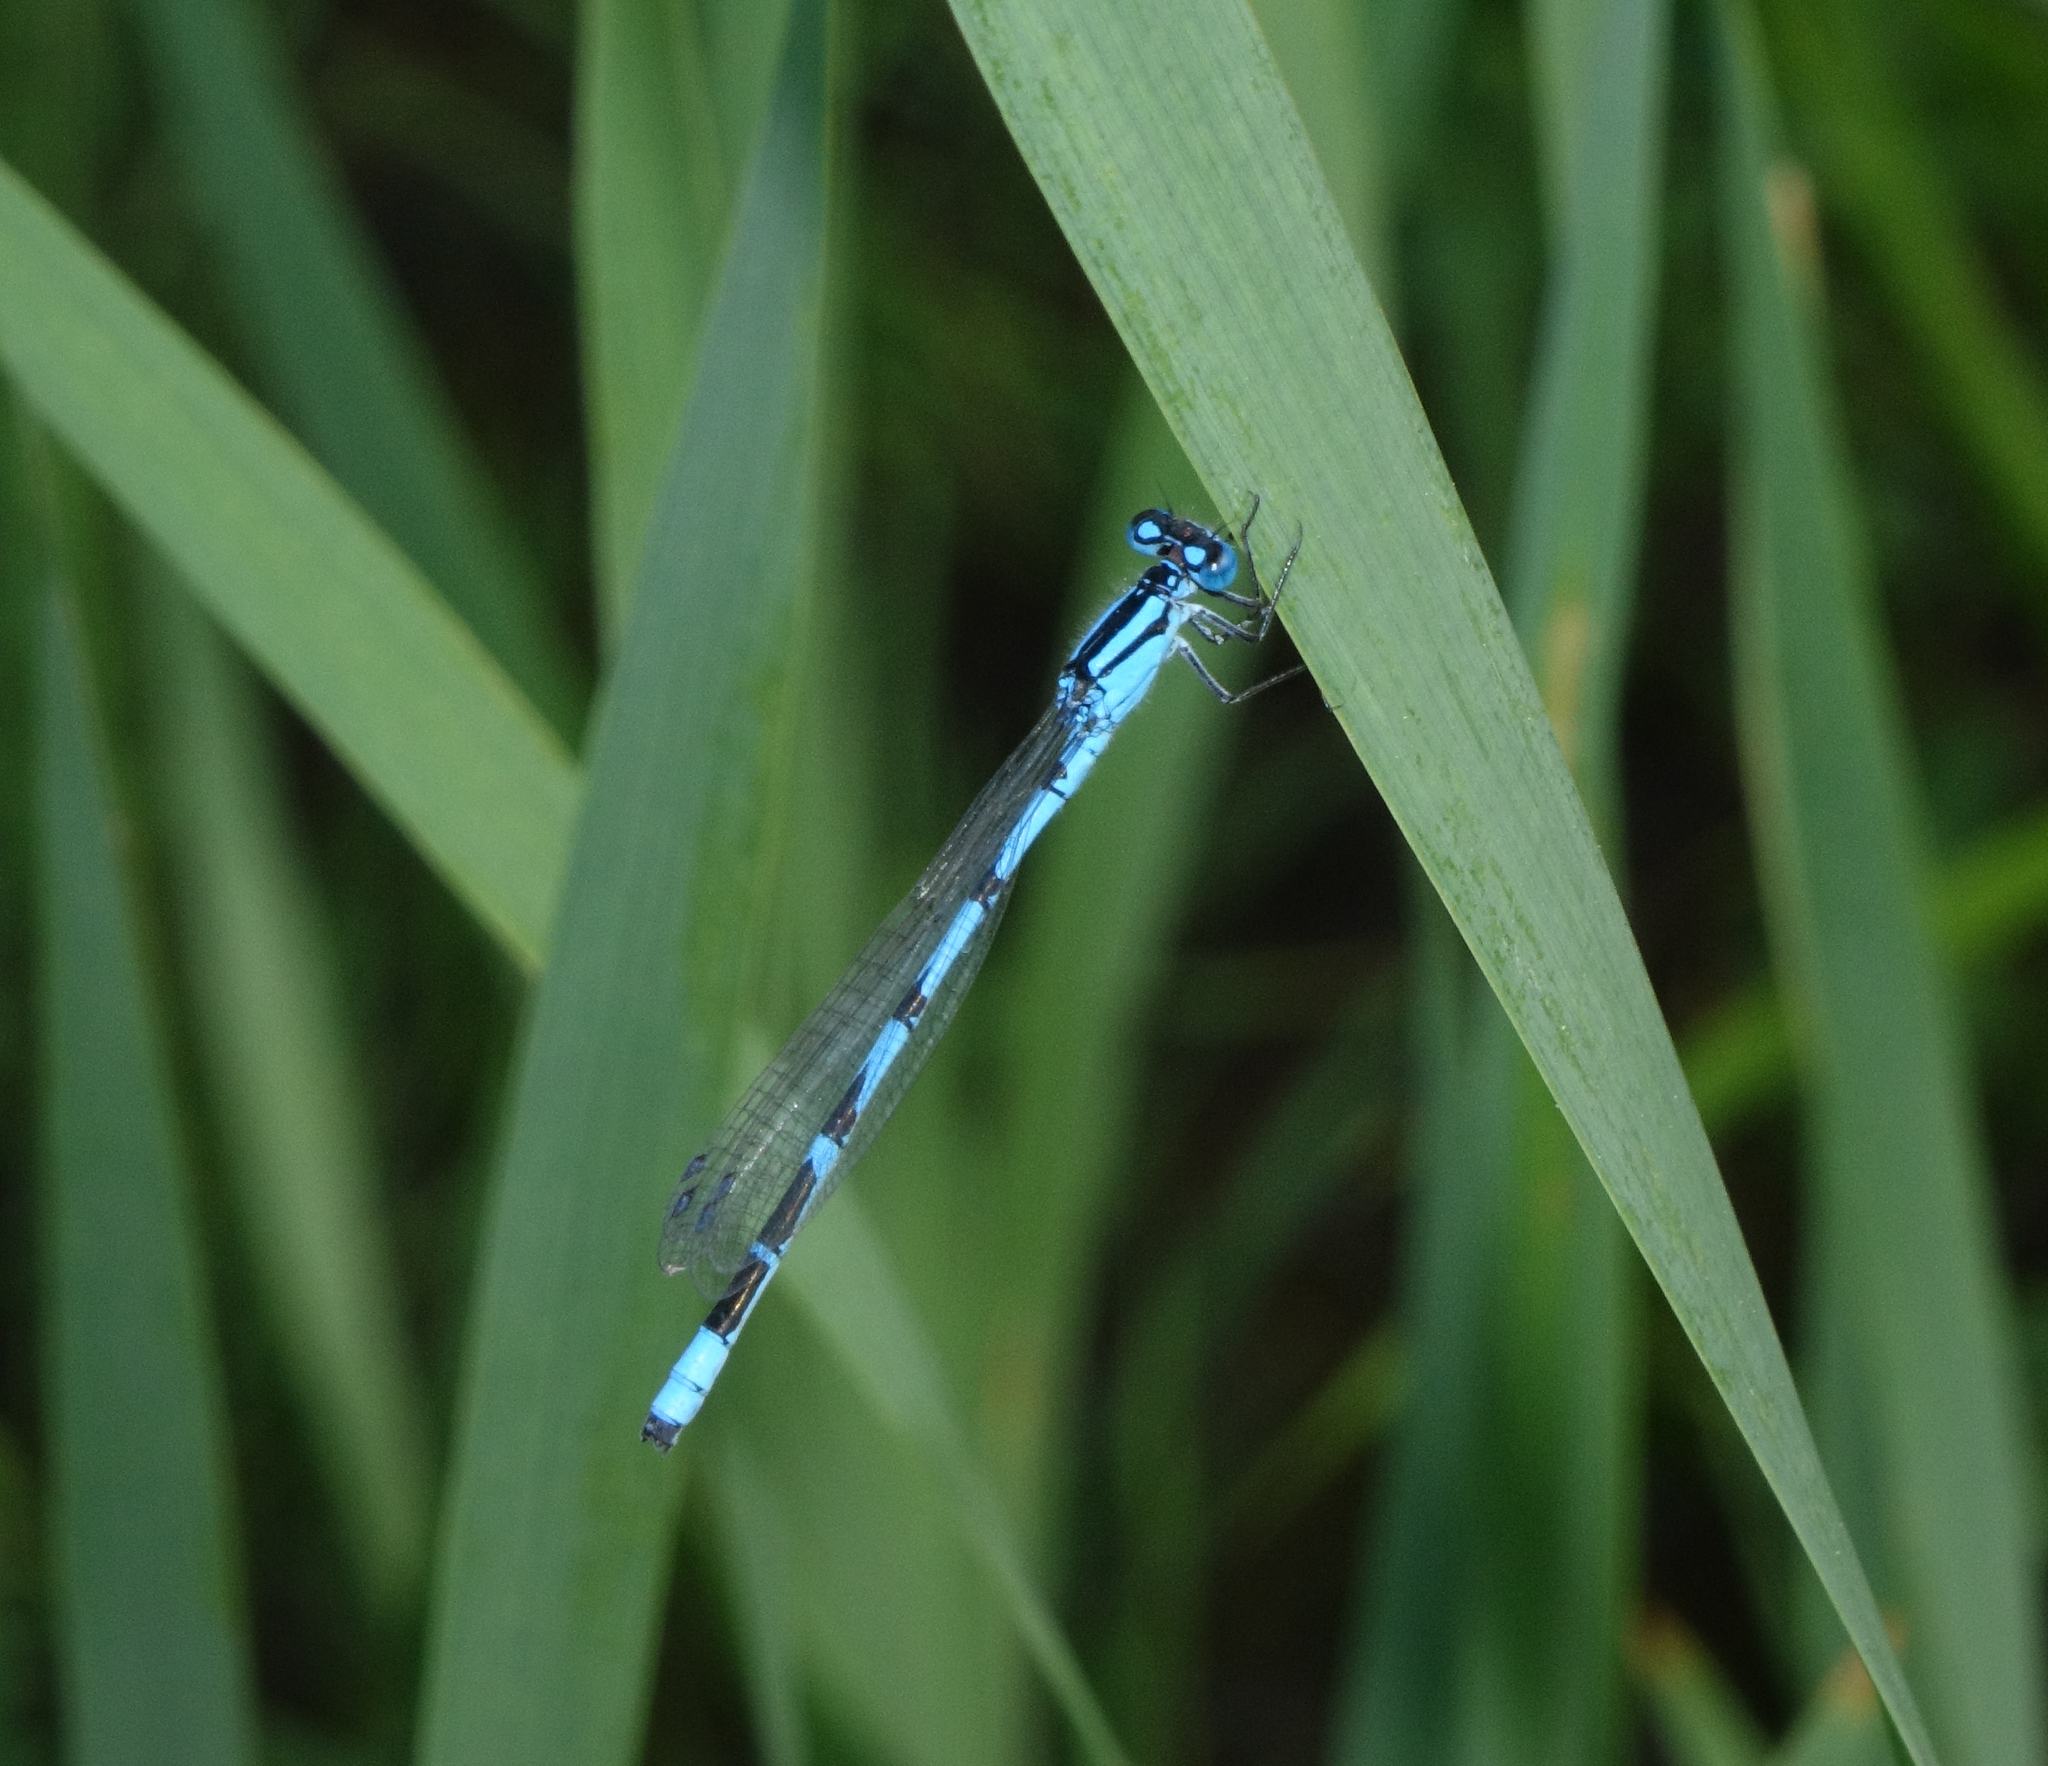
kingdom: Animalia
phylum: Arthropoda
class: Insecta
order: Odonata
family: Coenagrionidae
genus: Enallagma
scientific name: Enallagma cyathigerum
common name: Common blue damselfly
